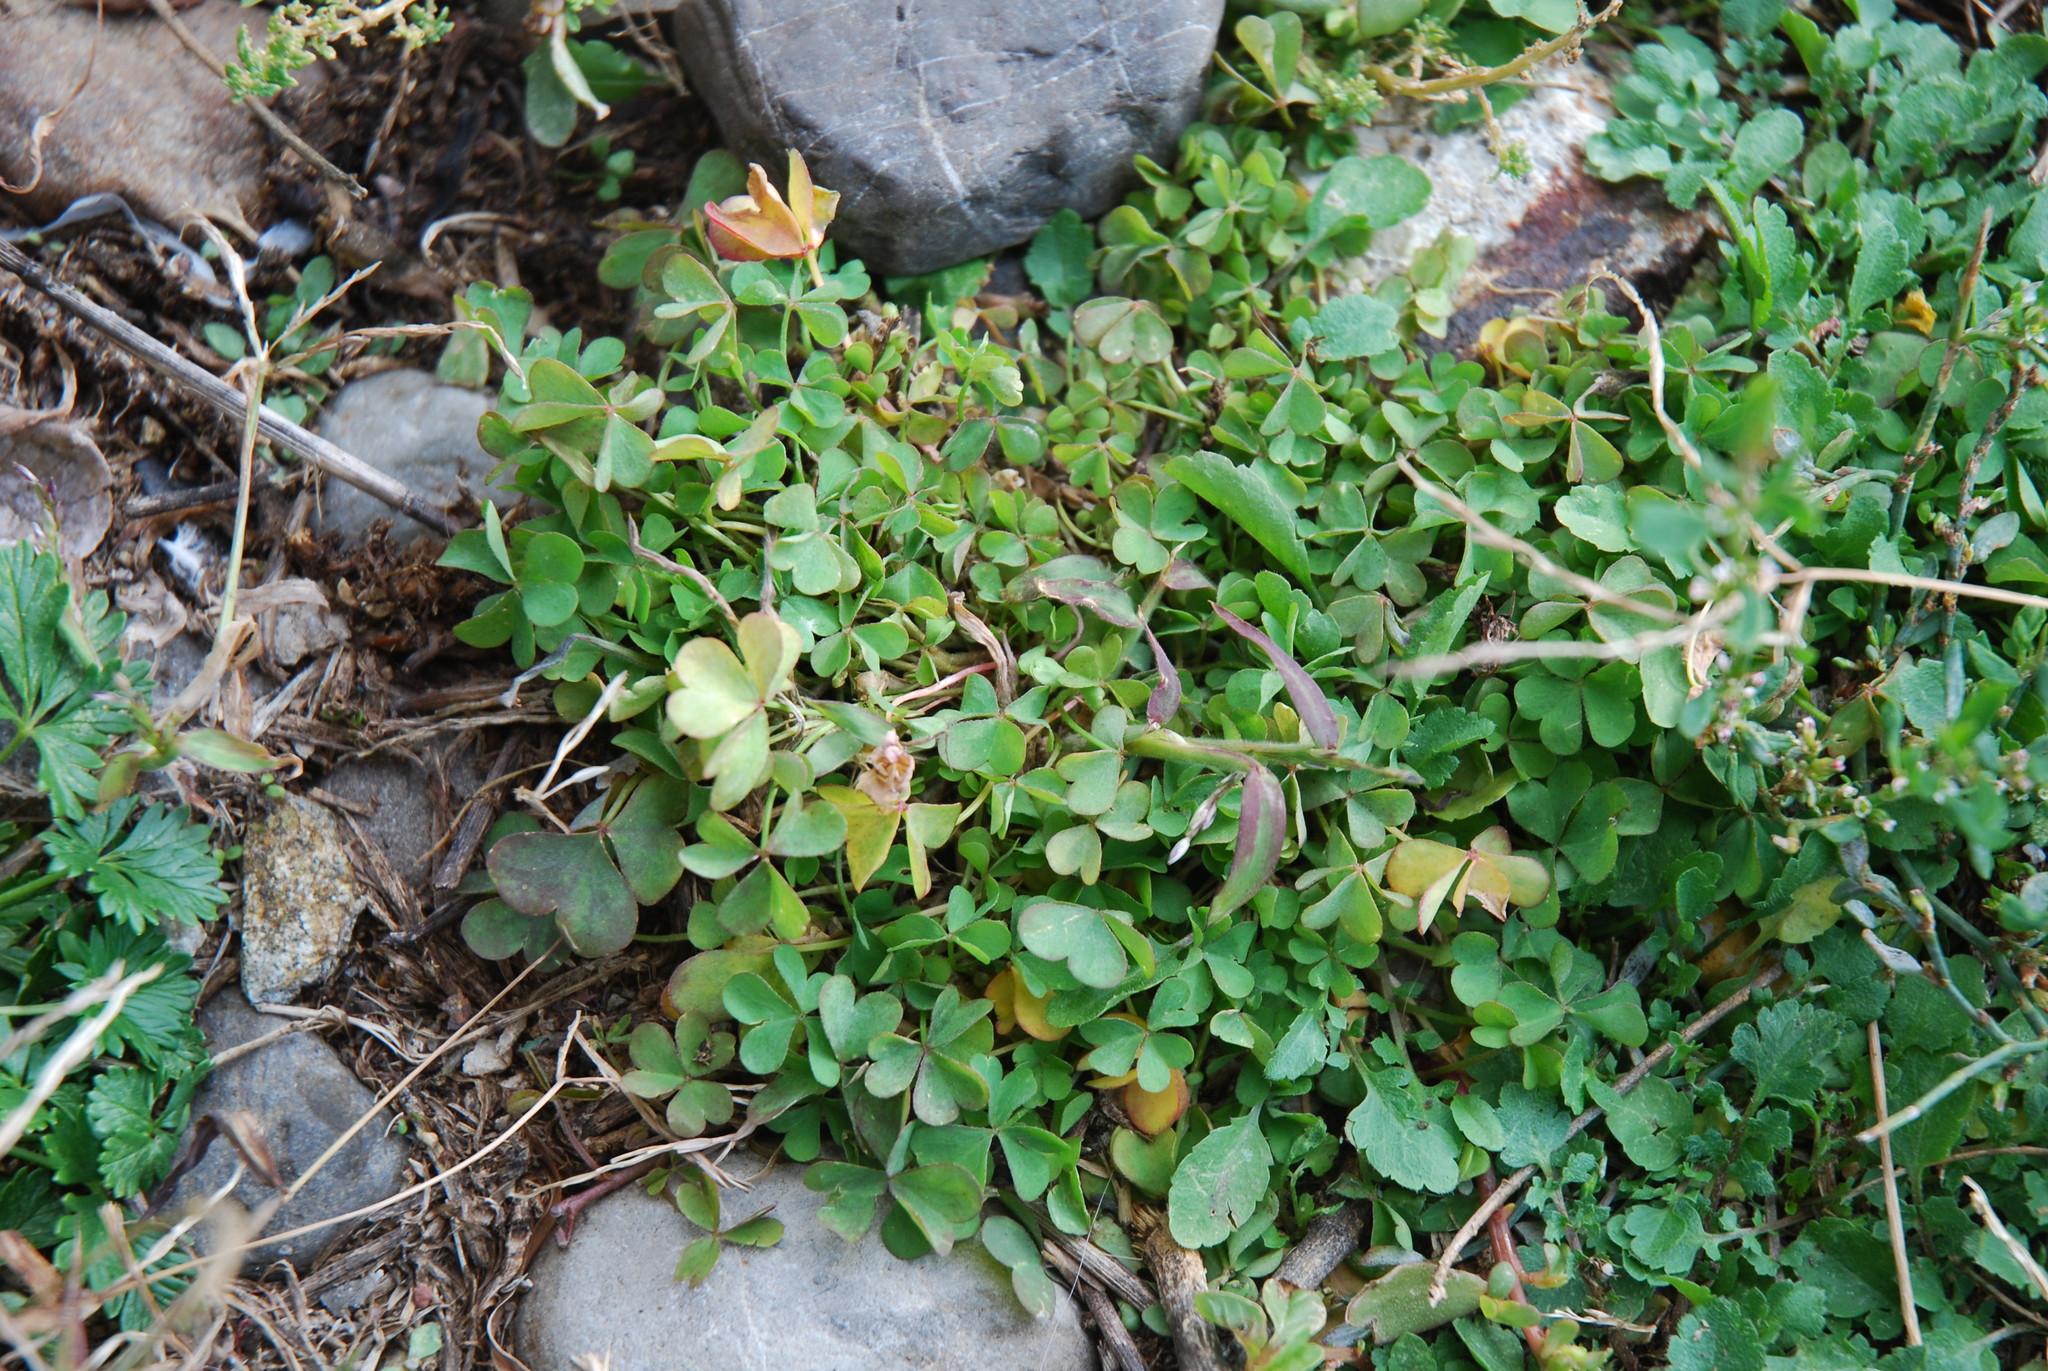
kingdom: Plantae
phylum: Tracheophyta
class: Magnoliopsida
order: Oxalidales
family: Oxalidaceae
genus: Oxalis
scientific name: Oxalis corniculata
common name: Procumbent yellow-sorrel
